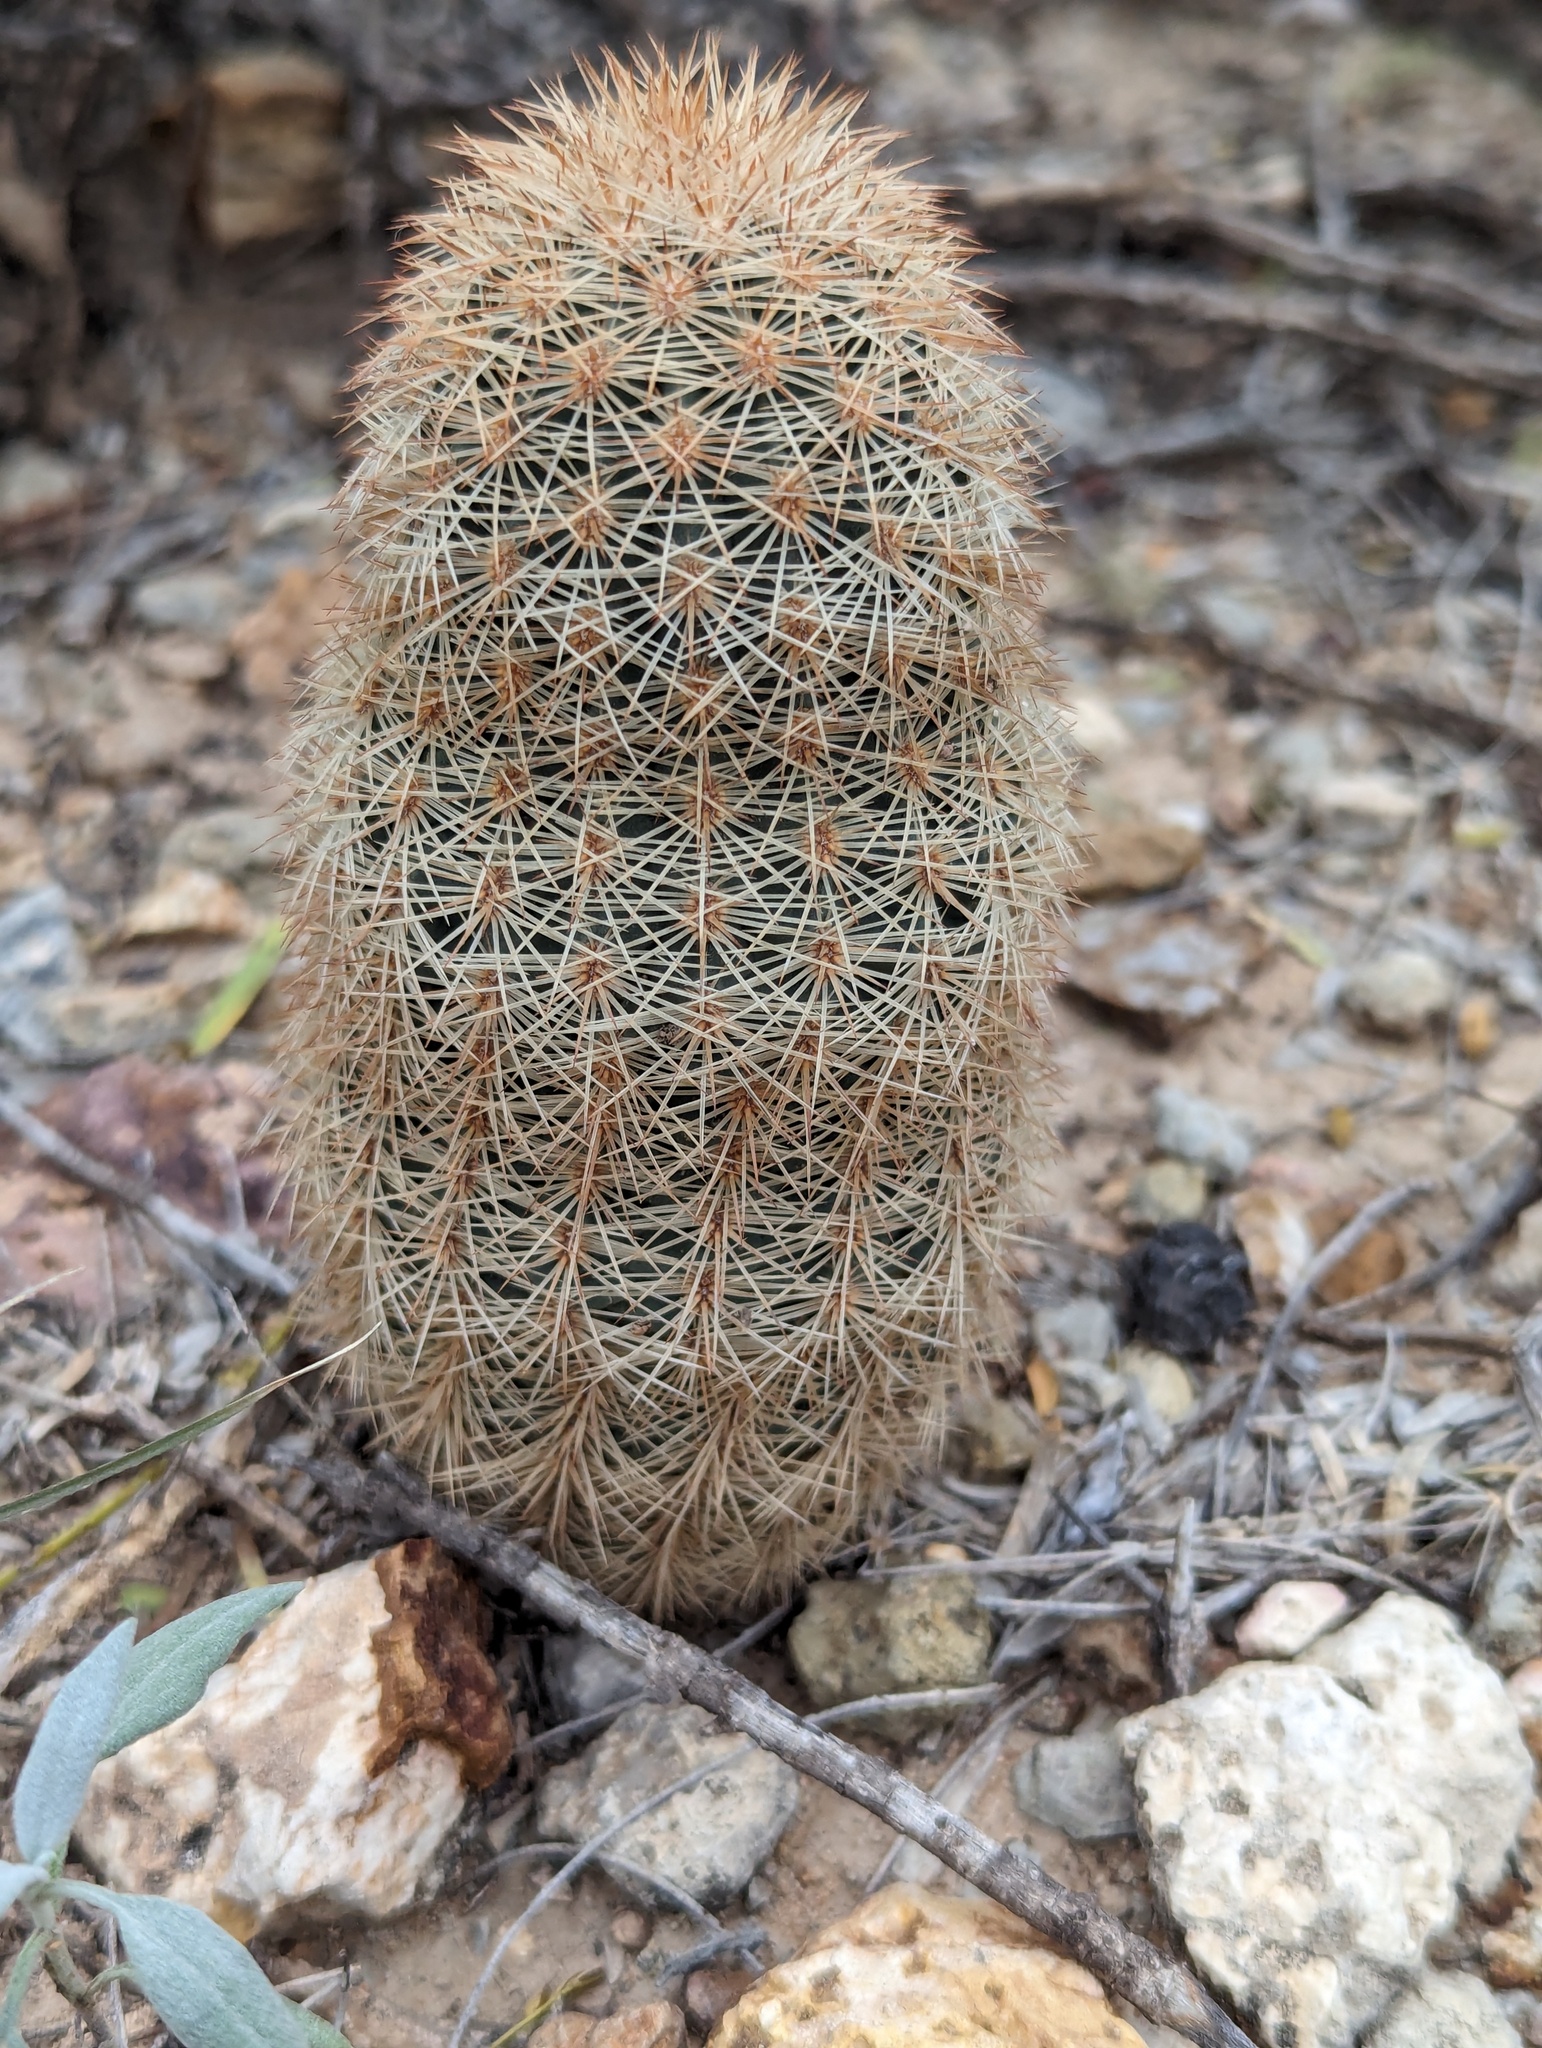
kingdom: Plantae
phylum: Tracheophyta
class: Magnoliopsida
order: Caryophyllales
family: Cactaceae
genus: Echinocereus
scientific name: Echinocereus dasyacanthus
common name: Spiny hedgehog cactus
